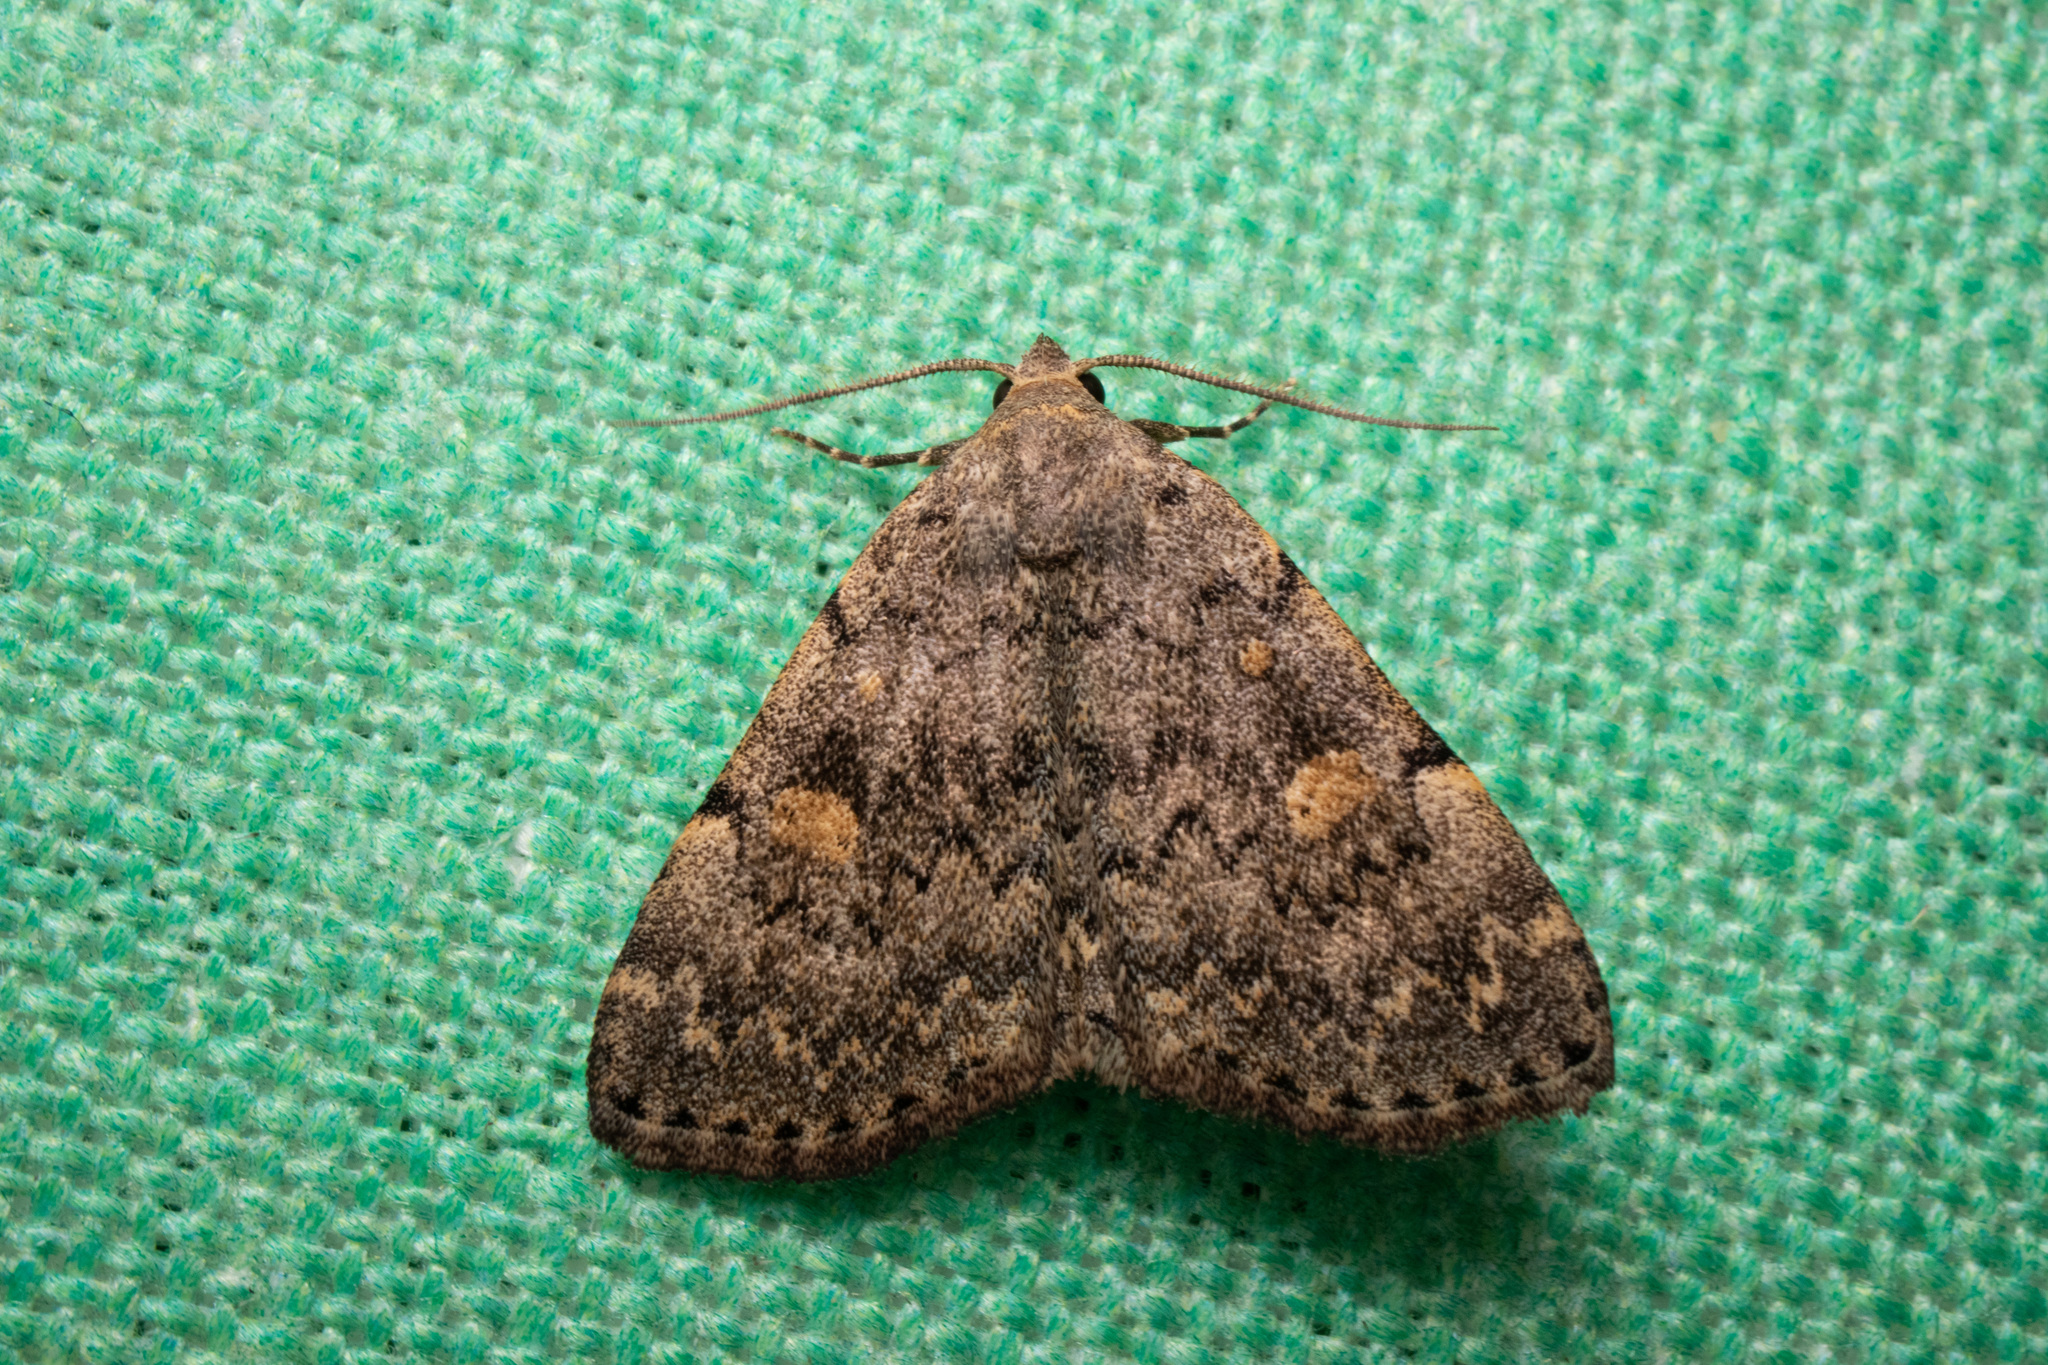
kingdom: Animalia
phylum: Arthropoda
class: Insecta
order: Lepidoptera
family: Erebidae
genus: Idia
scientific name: Idia aemula
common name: Common idia moth
